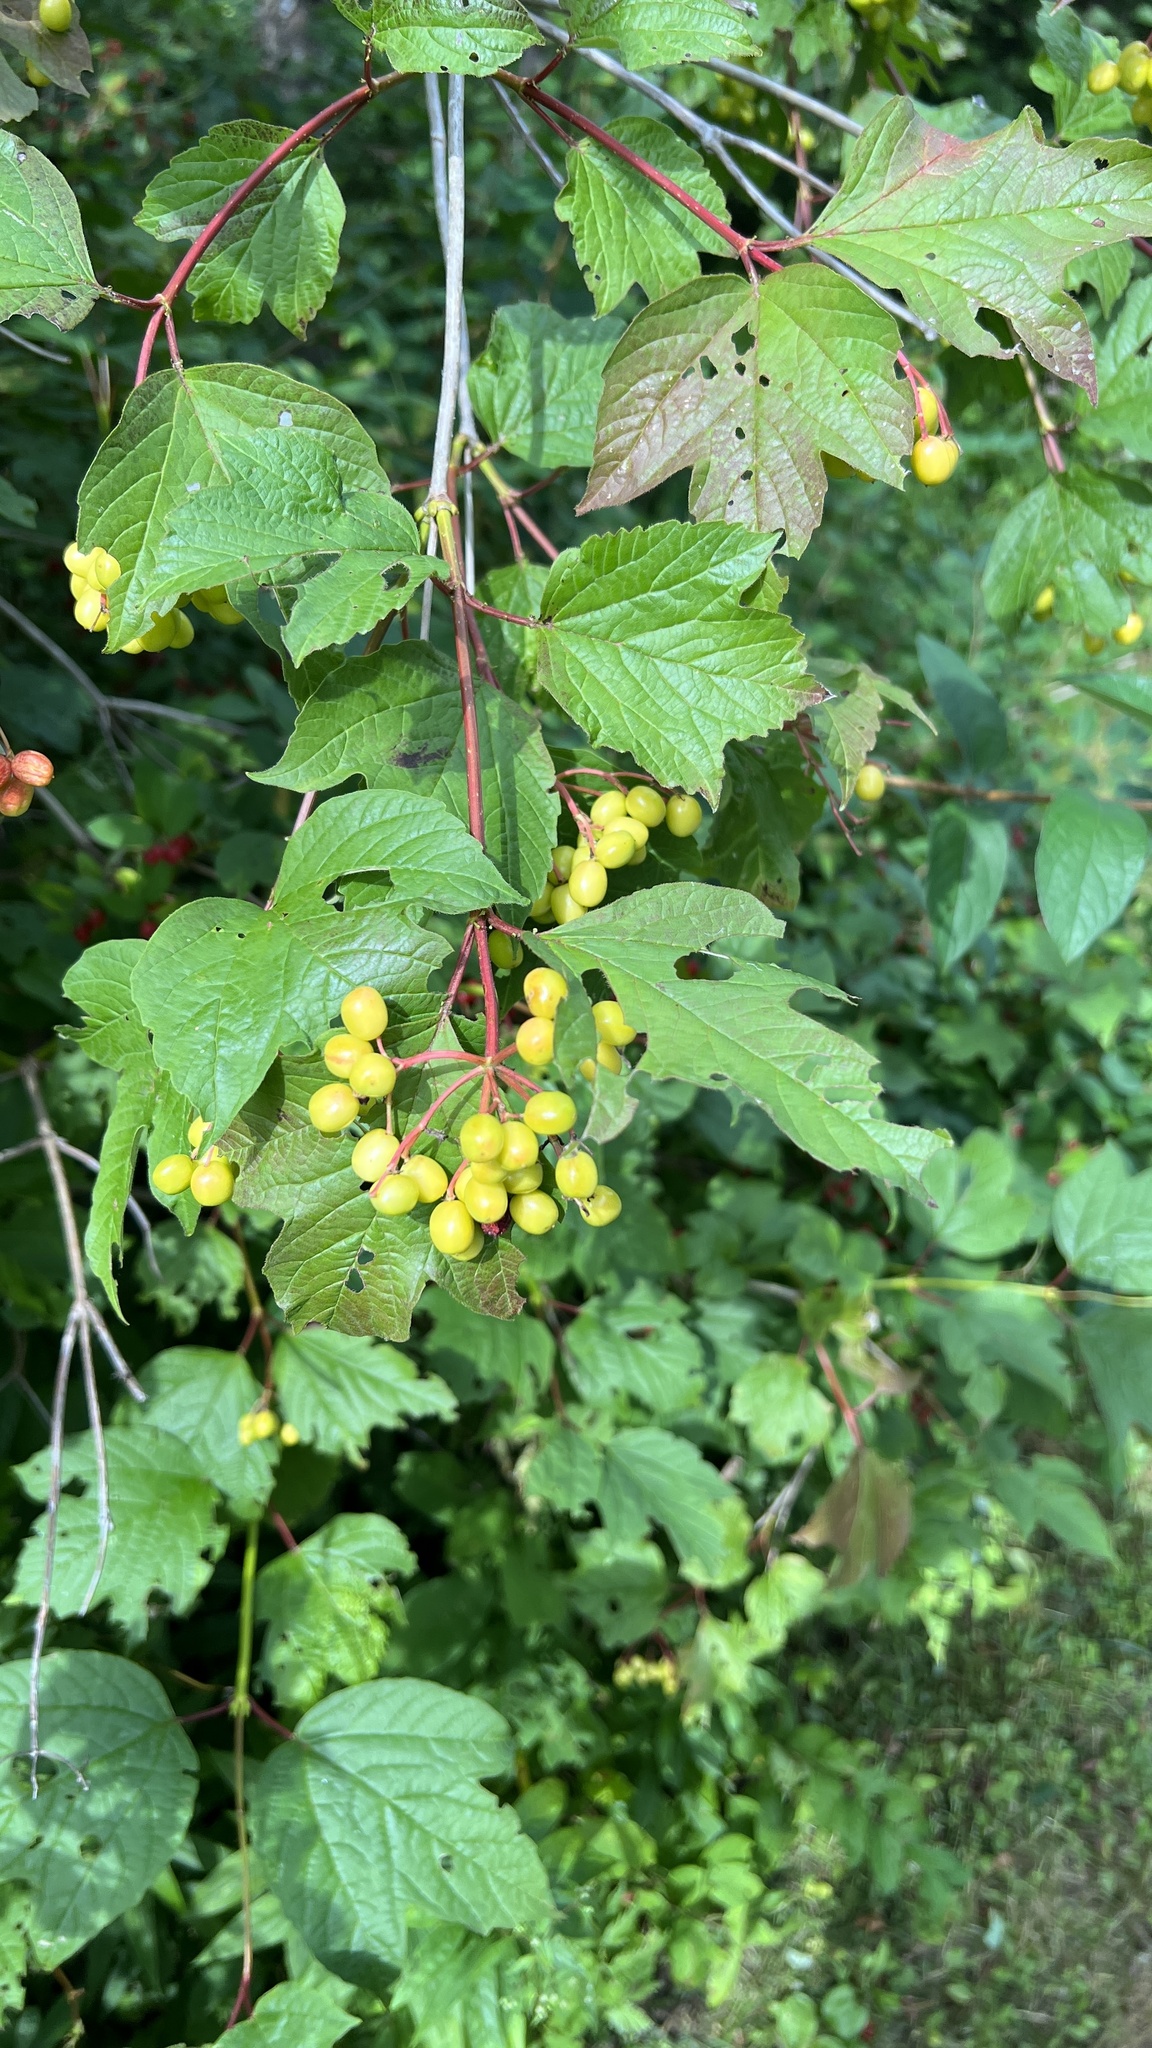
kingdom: Plantae
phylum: Tracheophyta
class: Magnoliopsida
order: Dipsacales
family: Viburnaceae
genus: Viburnum
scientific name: Viburnum opulus
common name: Guelder-rose
